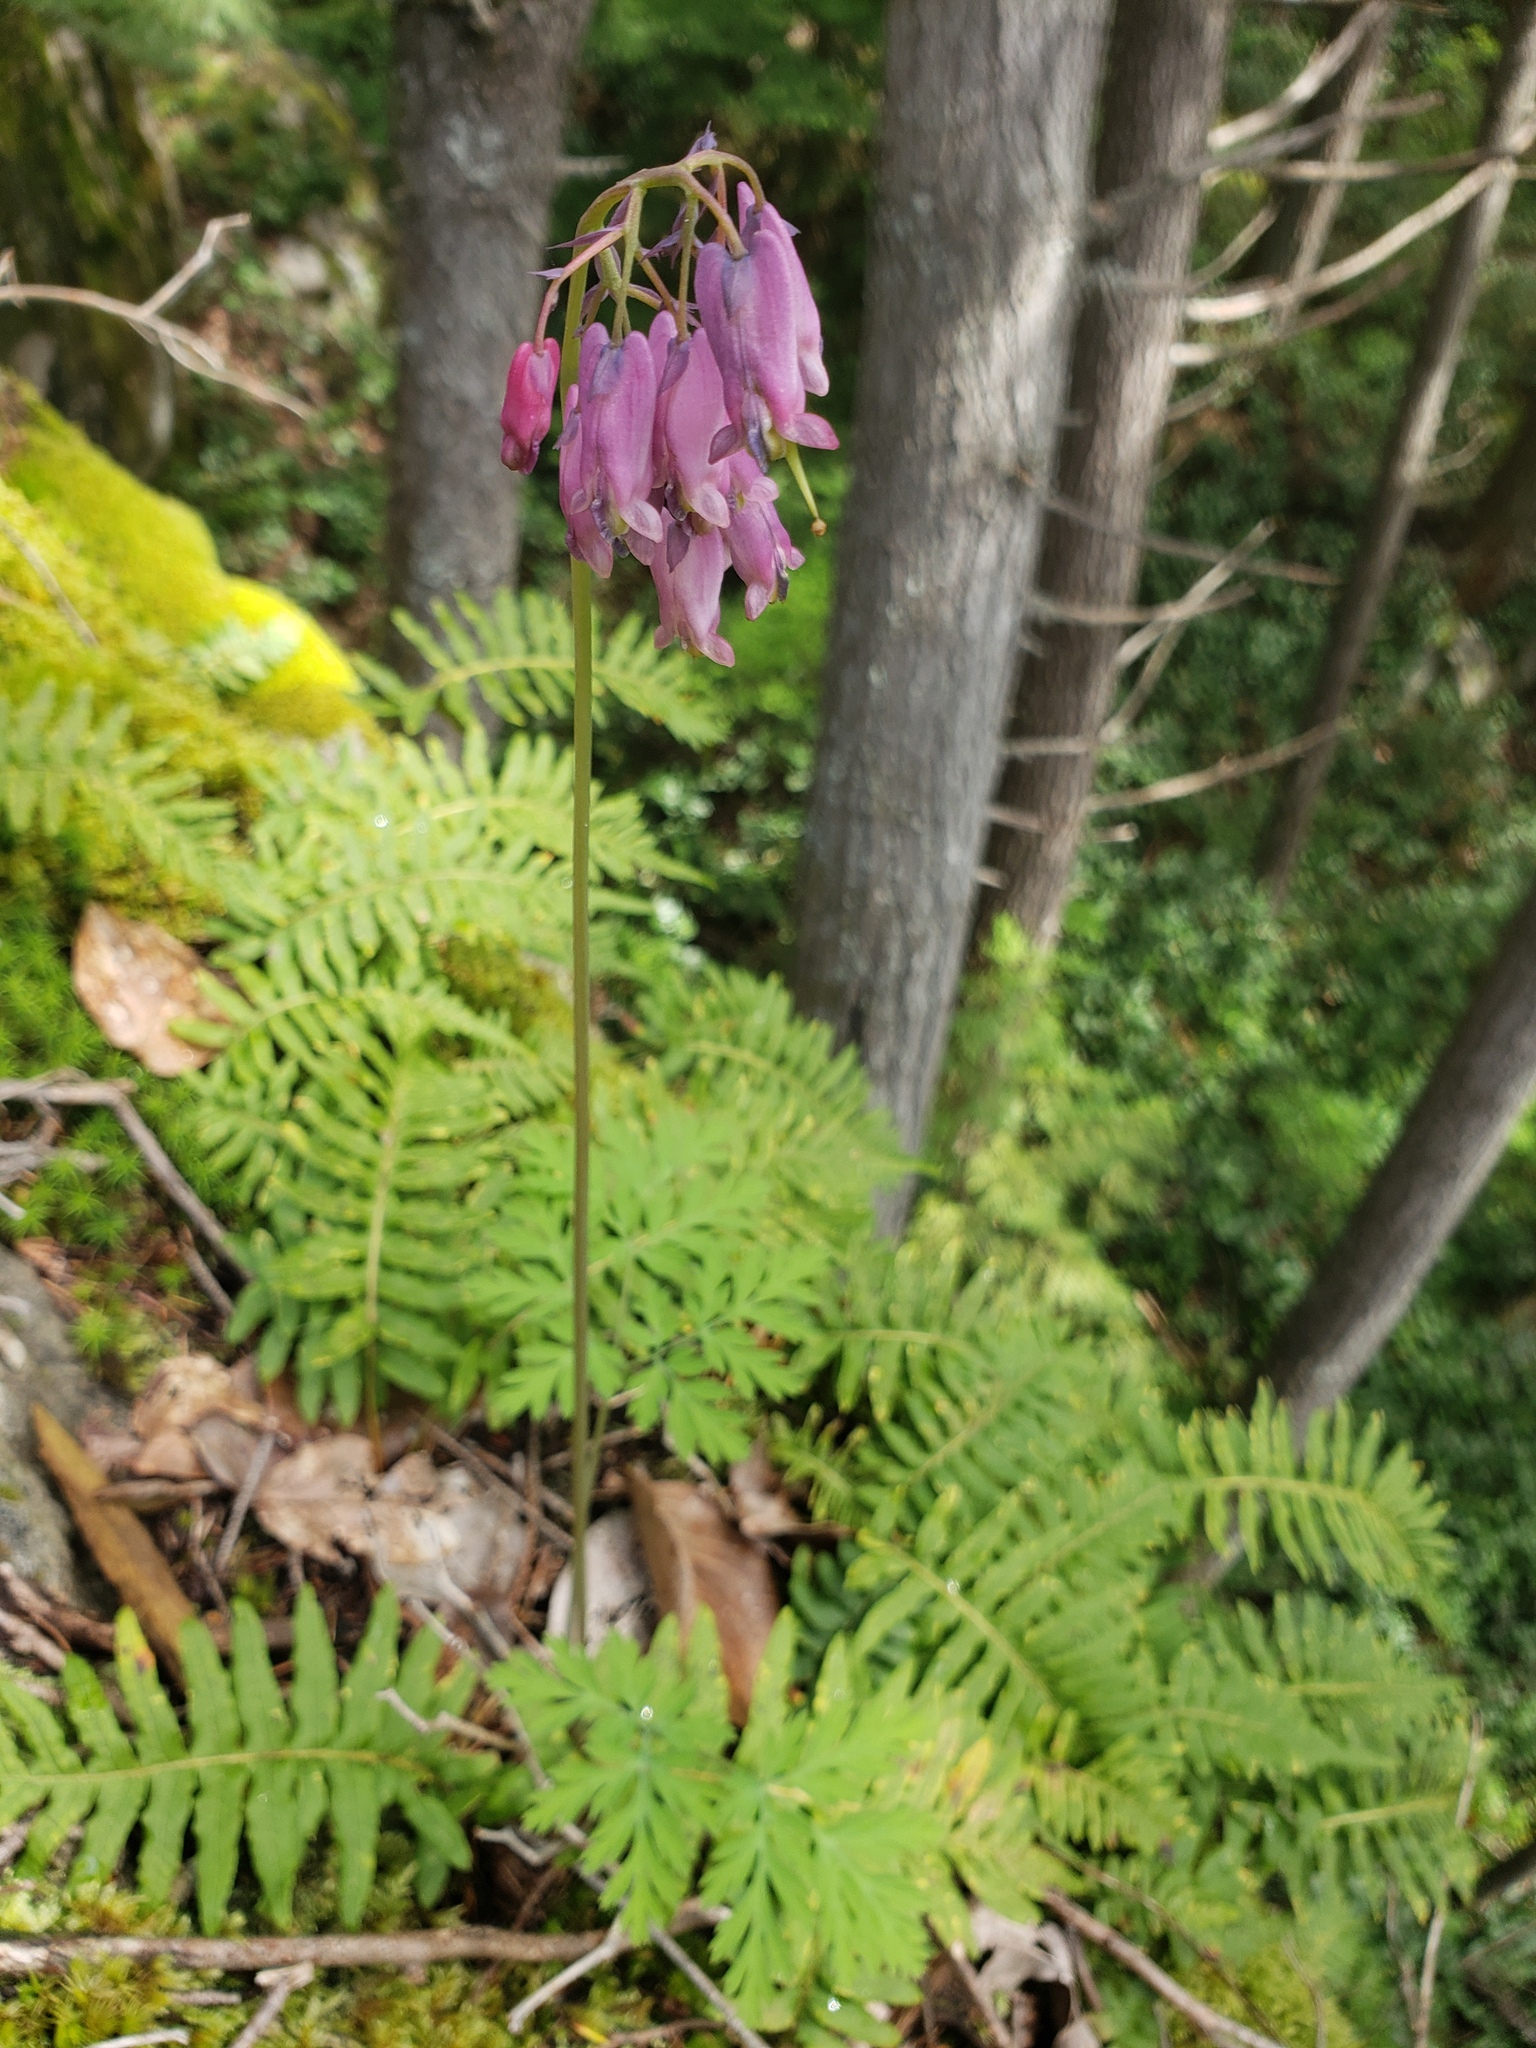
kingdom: Plantae
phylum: Tracheophyta
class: Magnoliopsida
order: Ranunculales
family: Papaveraceae
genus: Dicentra
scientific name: Dicentra formosa
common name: Bleeding-heart
